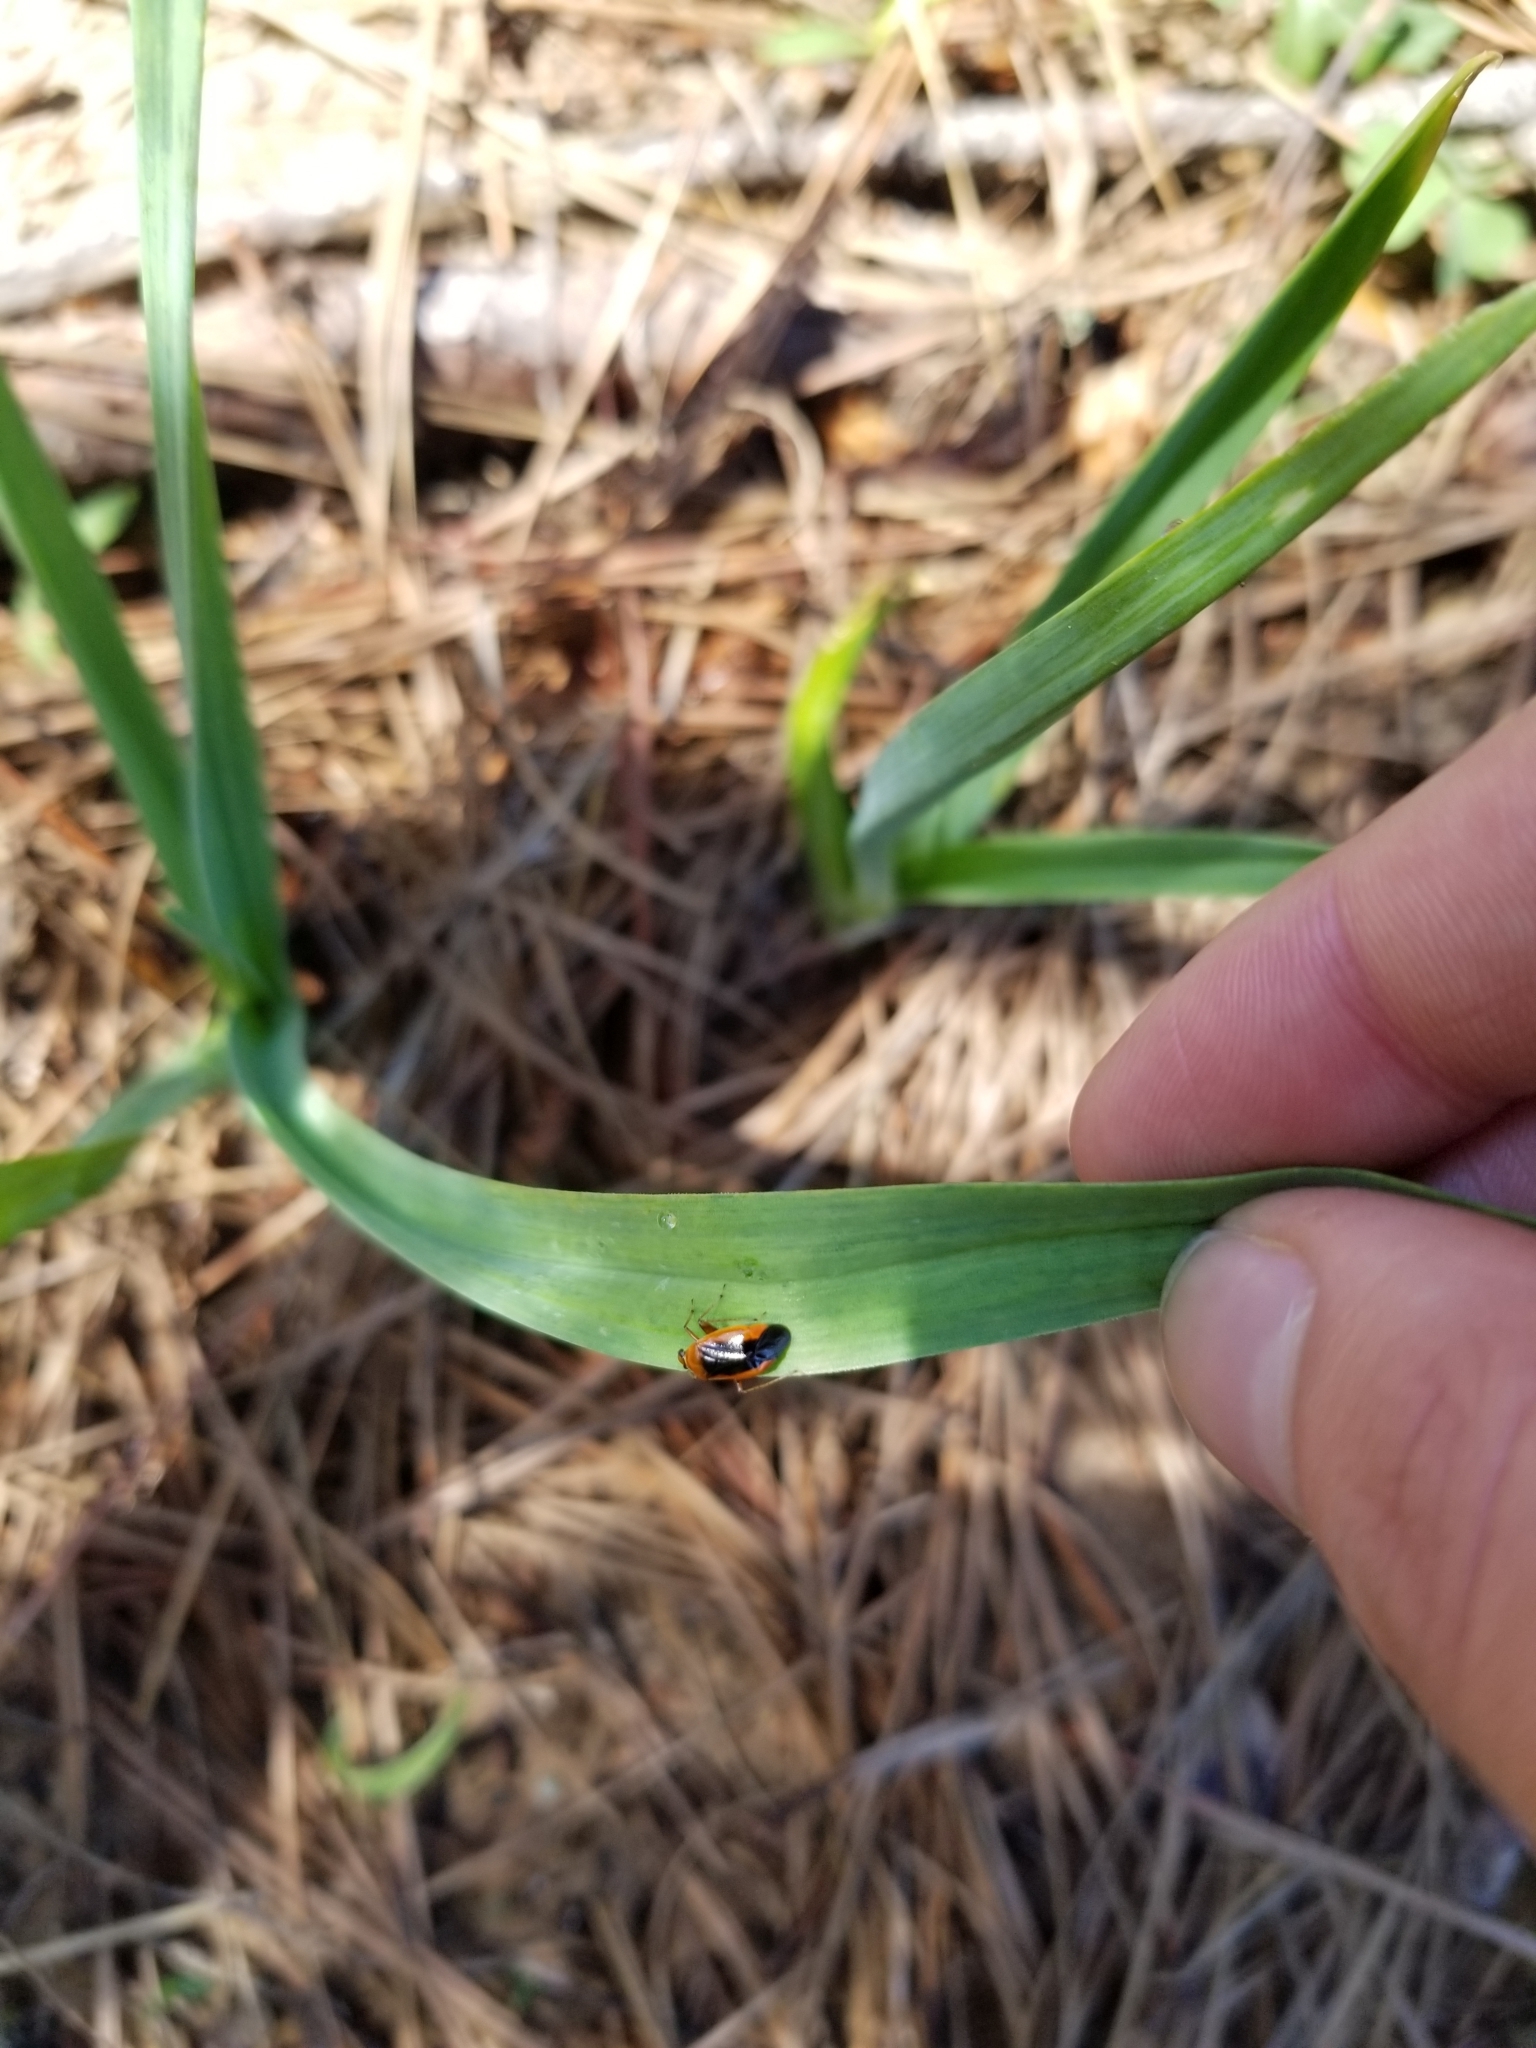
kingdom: Animalia
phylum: Arthropoda
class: Insecta
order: Hemiptera
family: Miridae
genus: Metriorrhynchomiris
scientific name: Metriorrhynchomiris dislocatus
